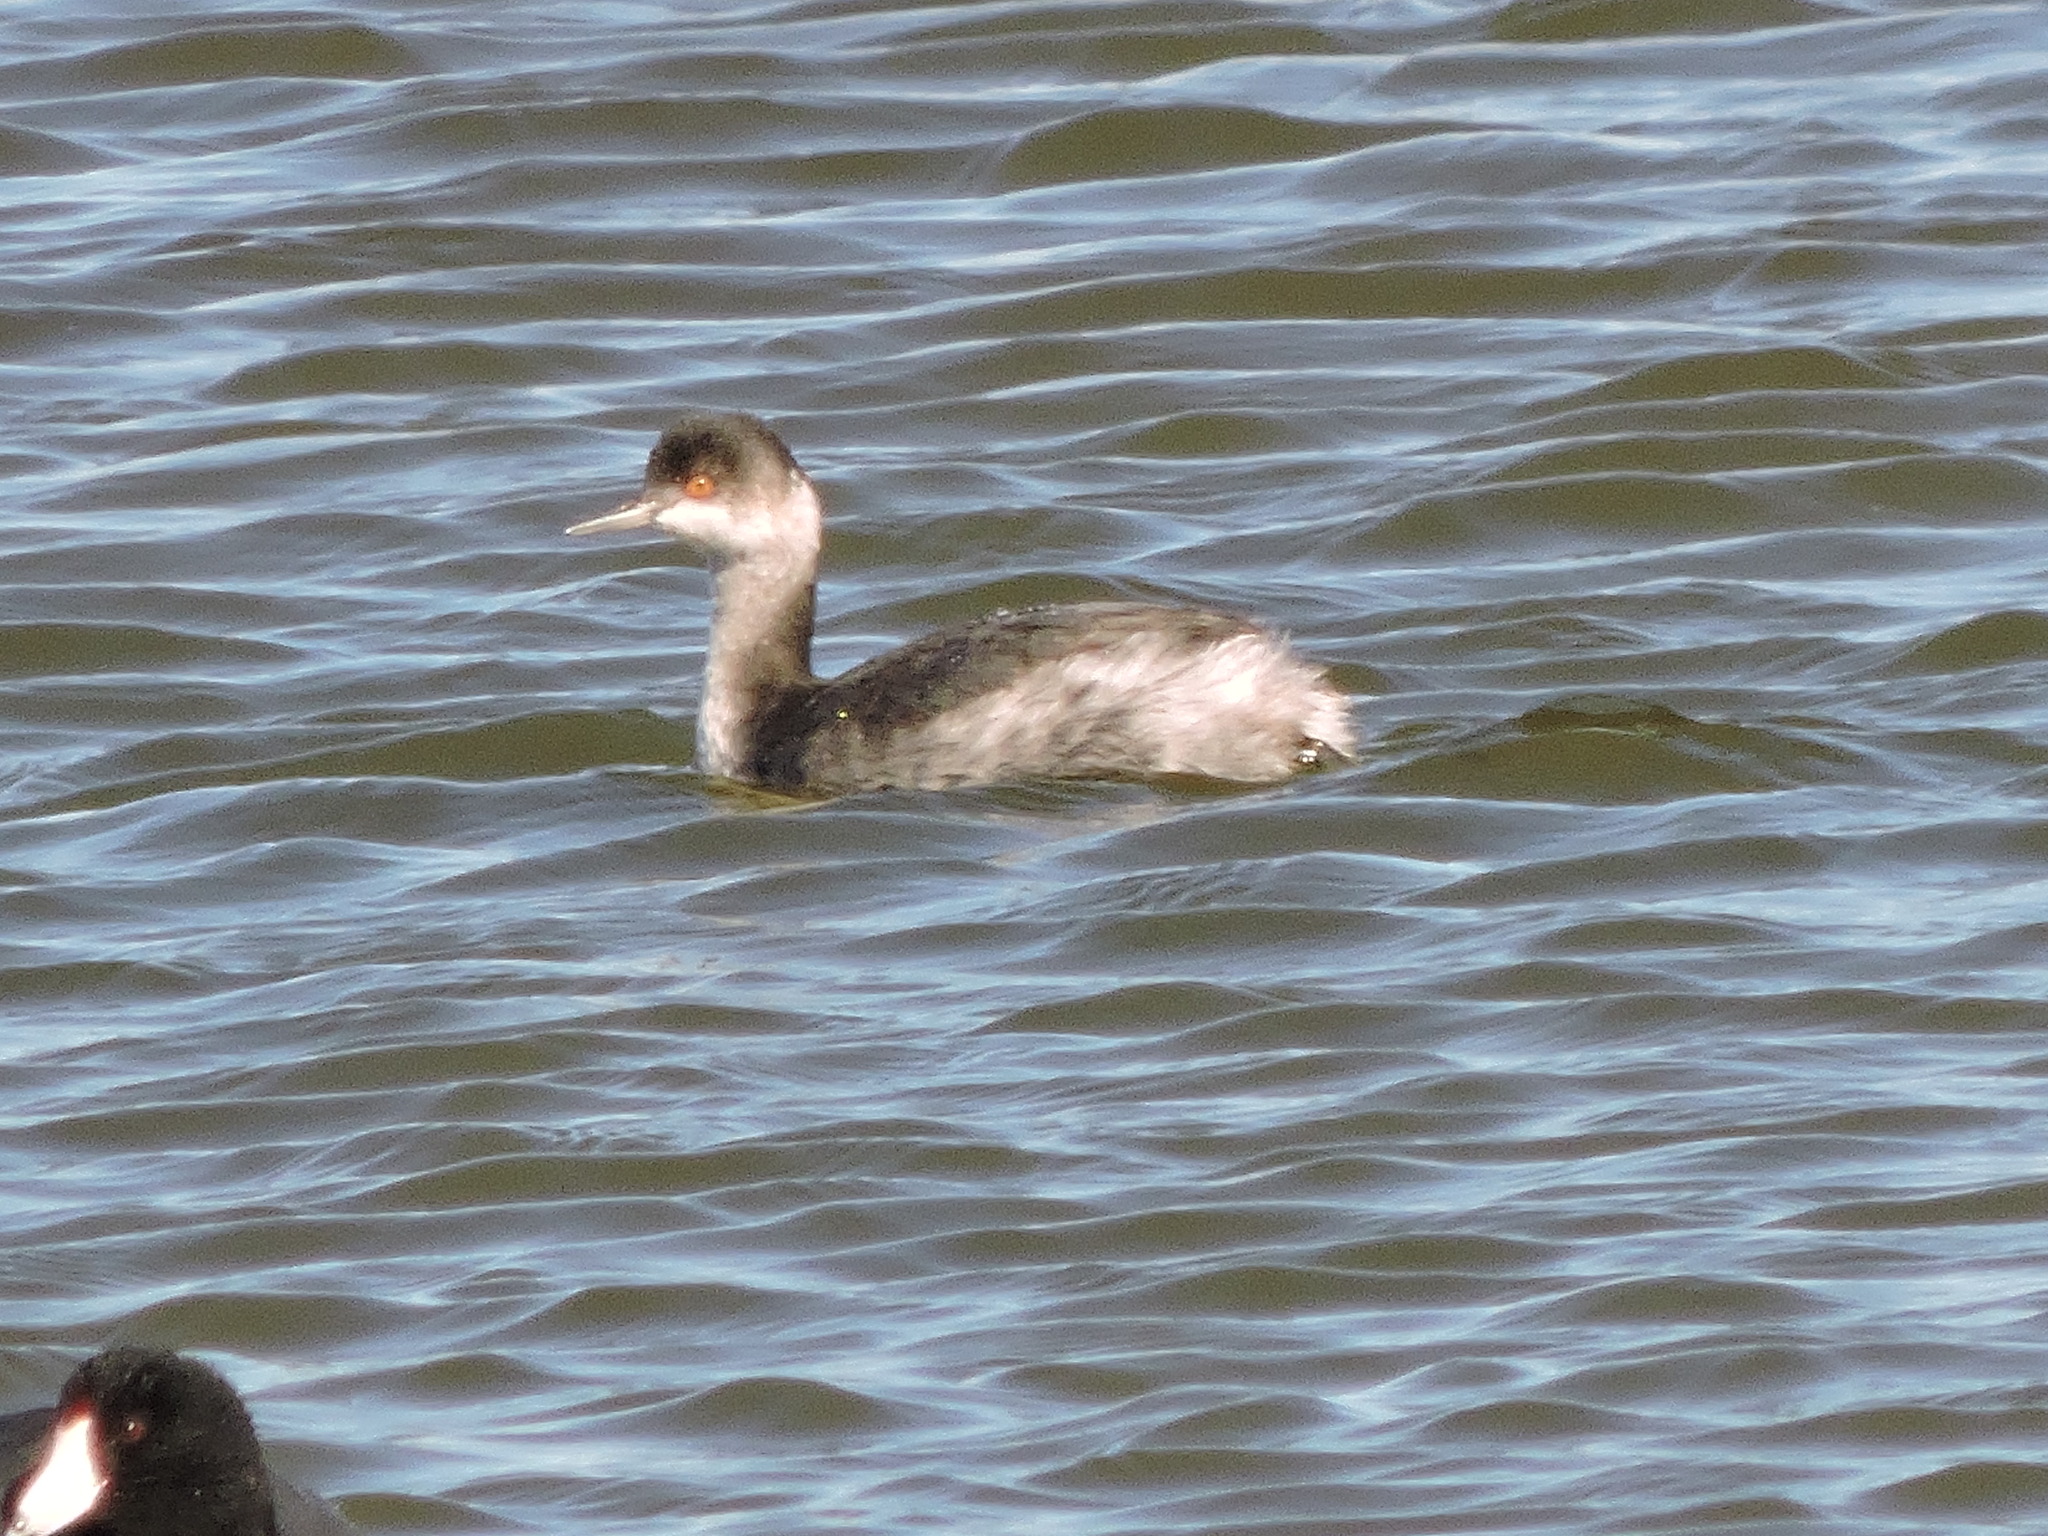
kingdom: Animalia
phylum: Chordata
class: Aves
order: Podicipediformes
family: Podicipedidae
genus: Podiceps
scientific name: Podiceps nigricollis
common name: Black-necked grebe
